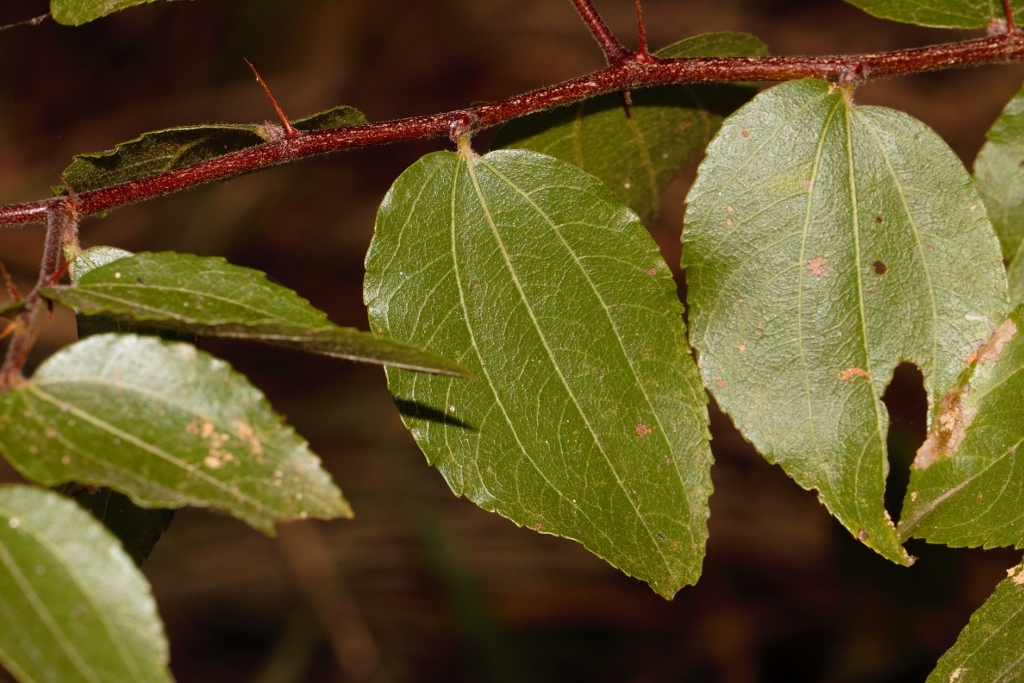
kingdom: Plantae
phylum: Tracheophyta
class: Magnoliopsida
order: Rosales
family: Rhamnaceae
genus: Ziziphus
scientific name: Ziziphus mucronata
